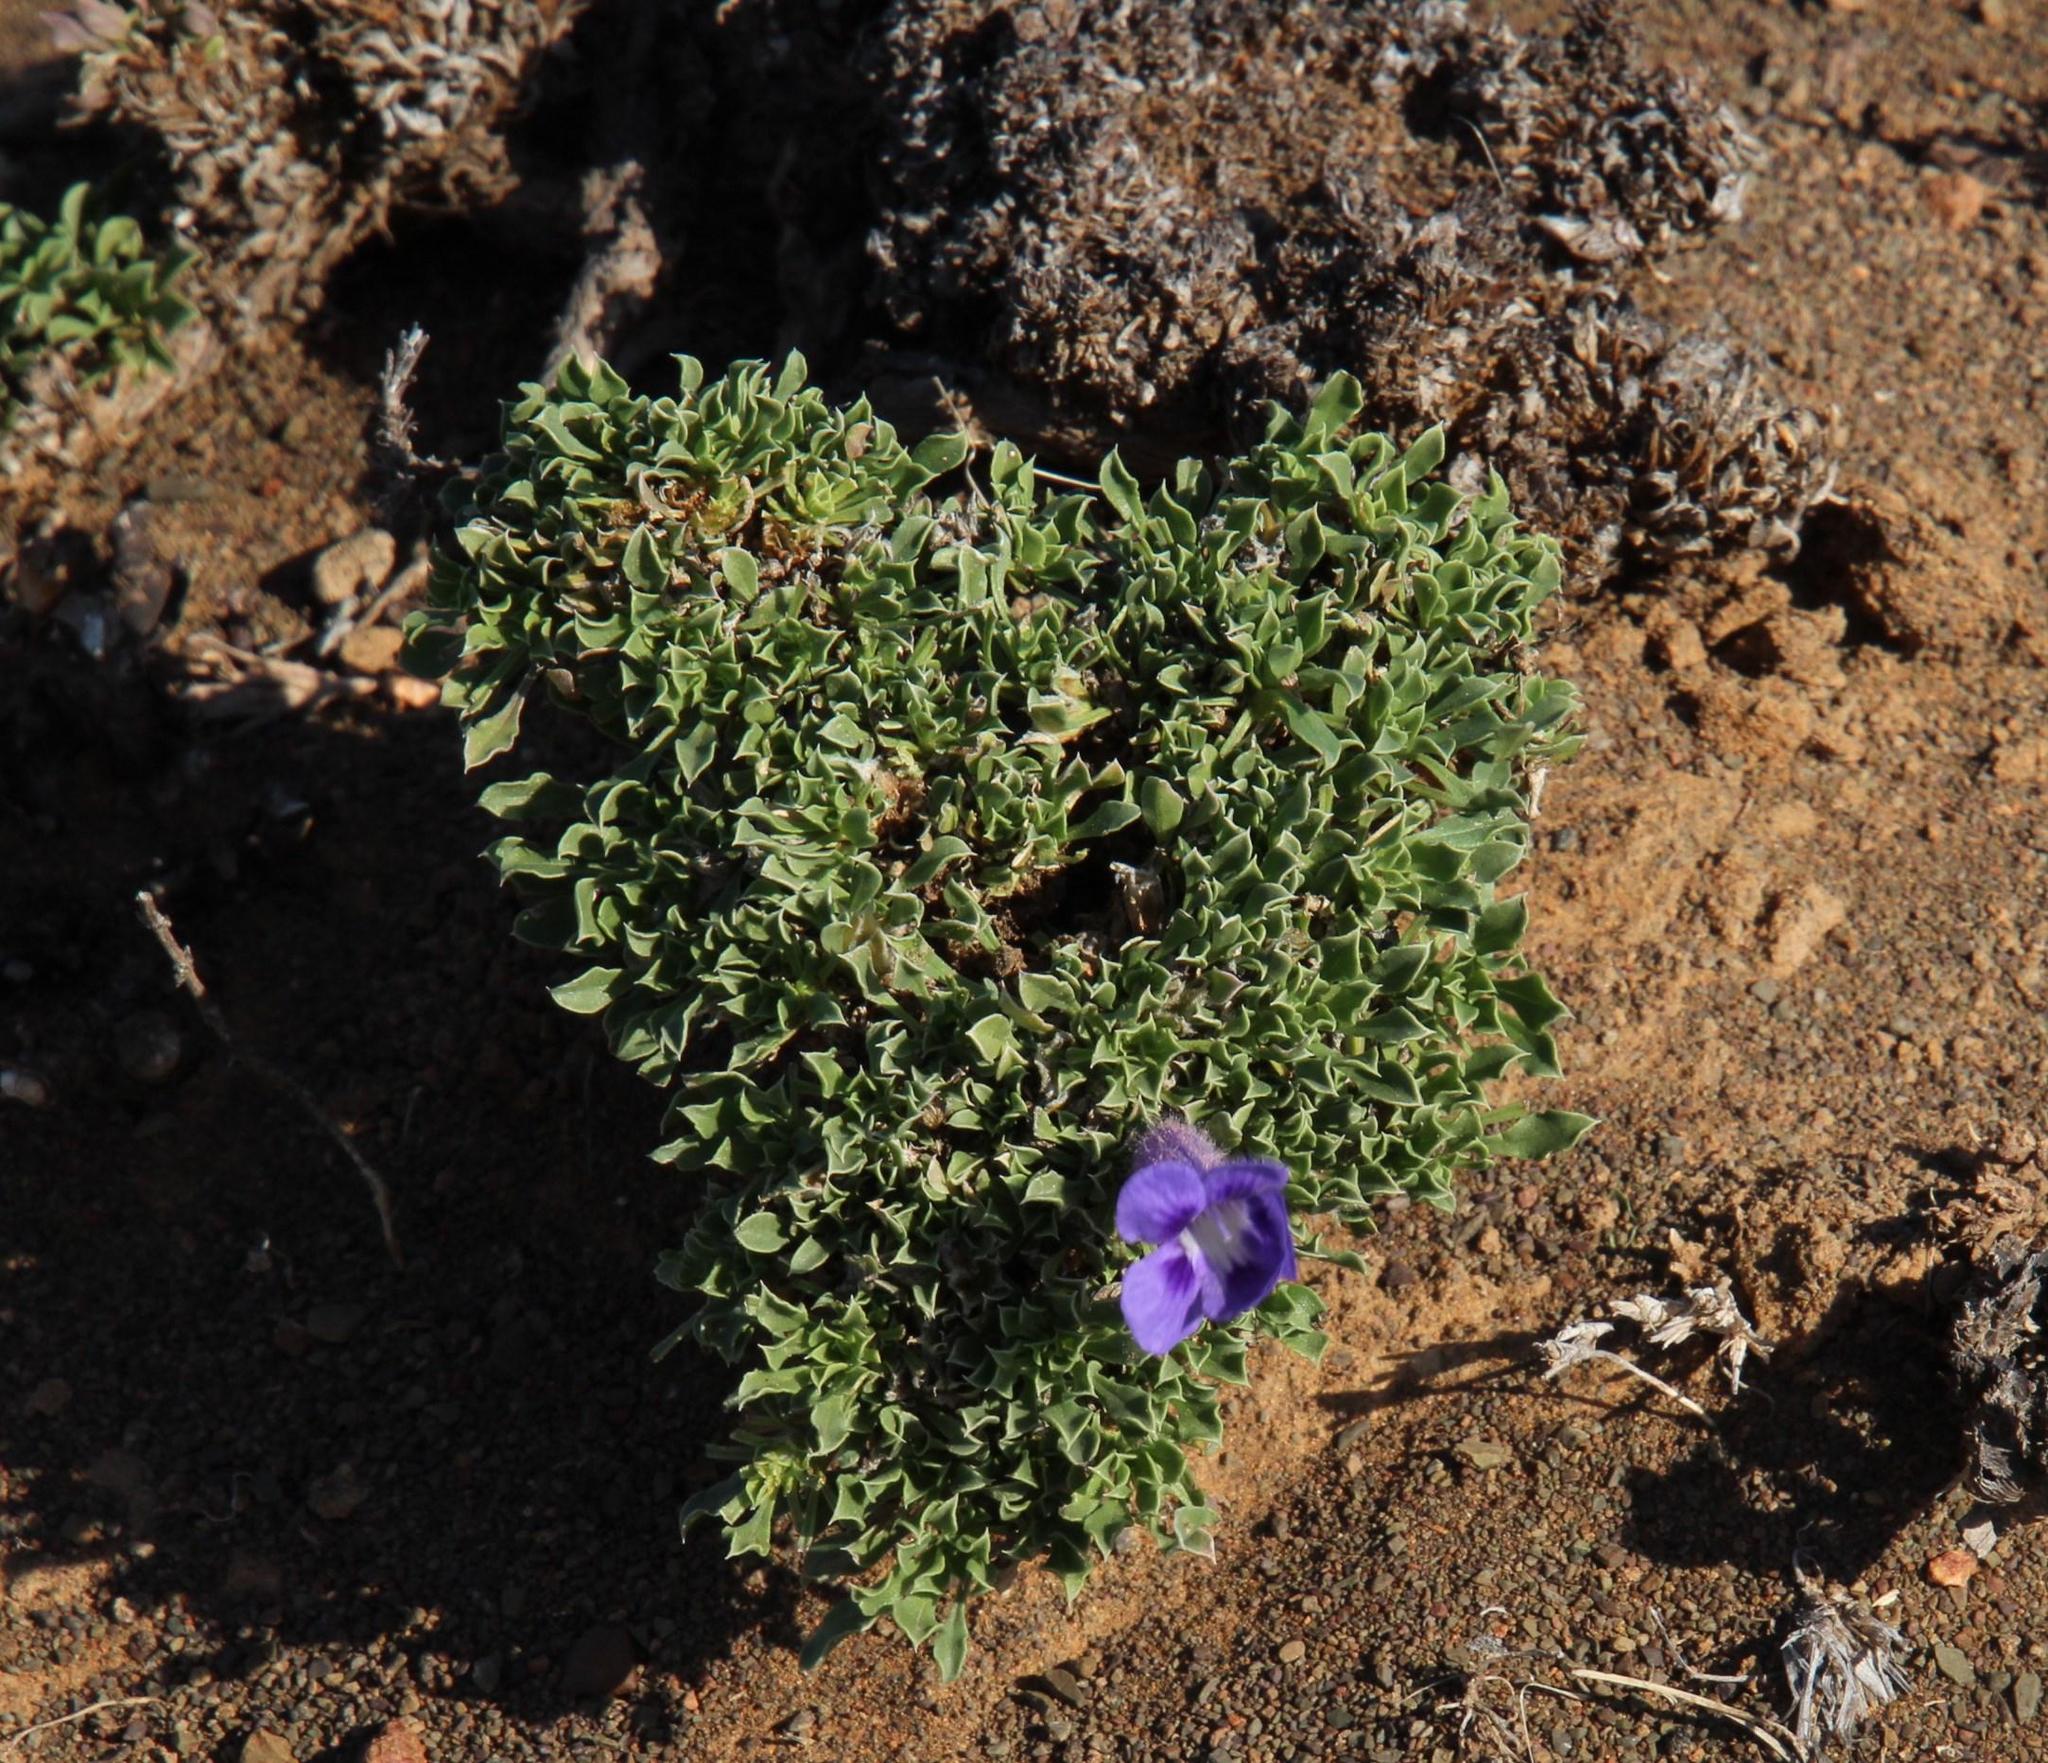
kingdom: Plantae
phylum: Tracheophyta
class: Magnoliopsida
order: Lamiales
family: Scrophulariaceae
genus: Aptosimum
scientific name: Aptosimum procumbens
